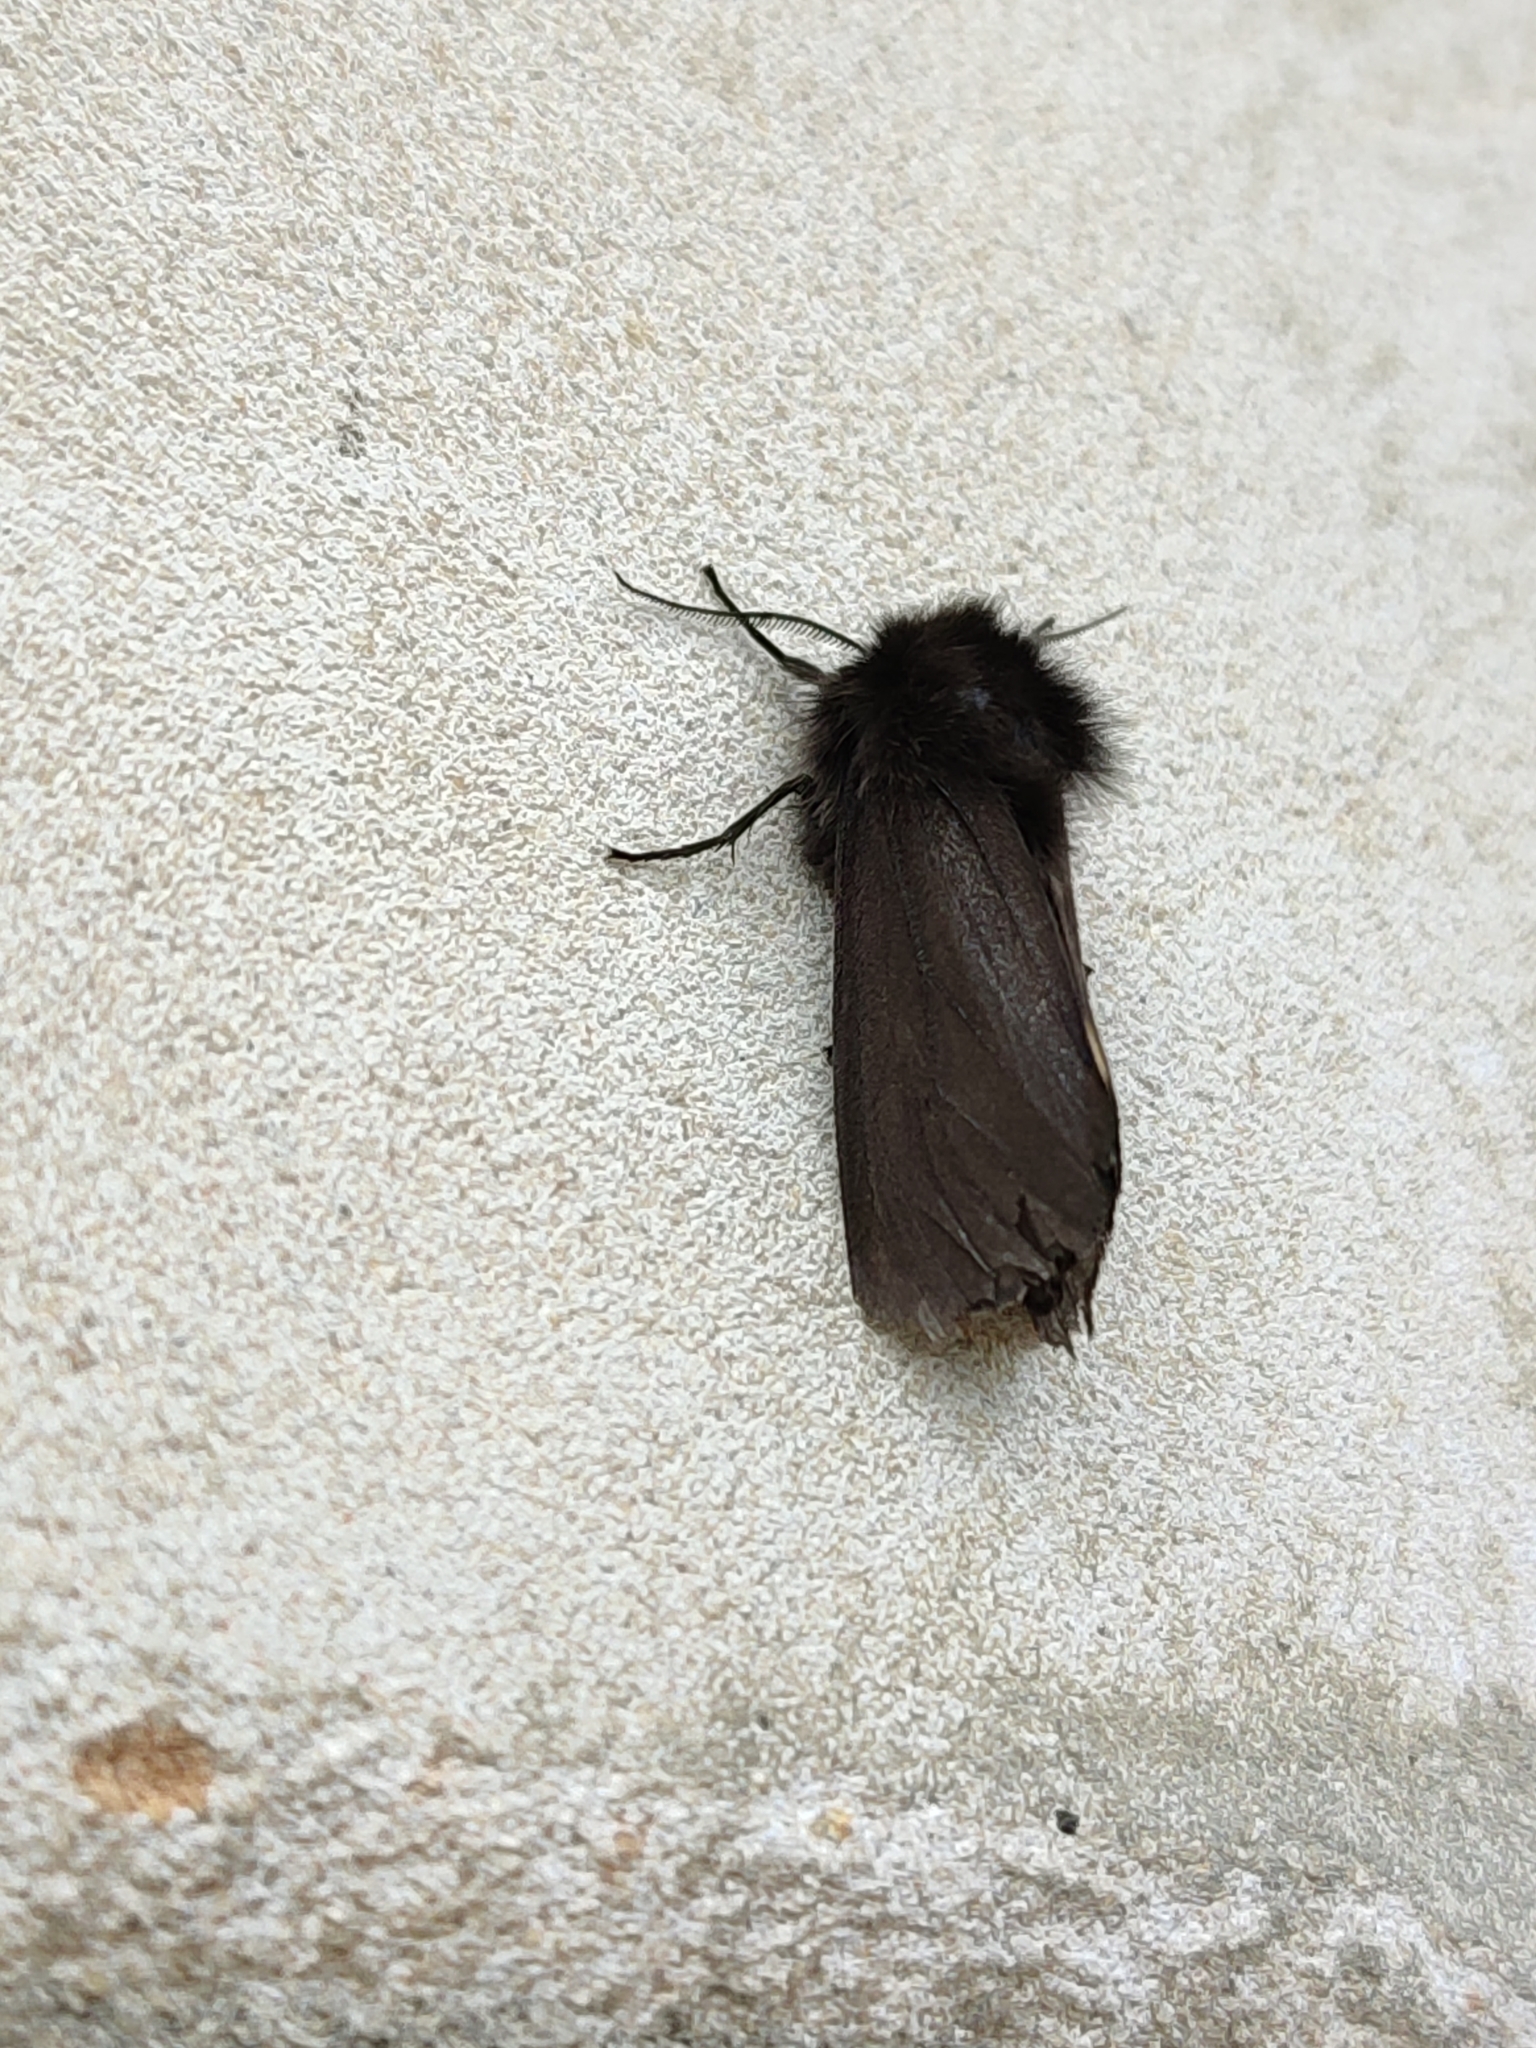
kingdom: Animalia
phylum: Arthropoda
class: Insecta
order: Lepidoptera
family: Erebidae
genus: Epatolmis
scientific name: Epatolmis luctifera
